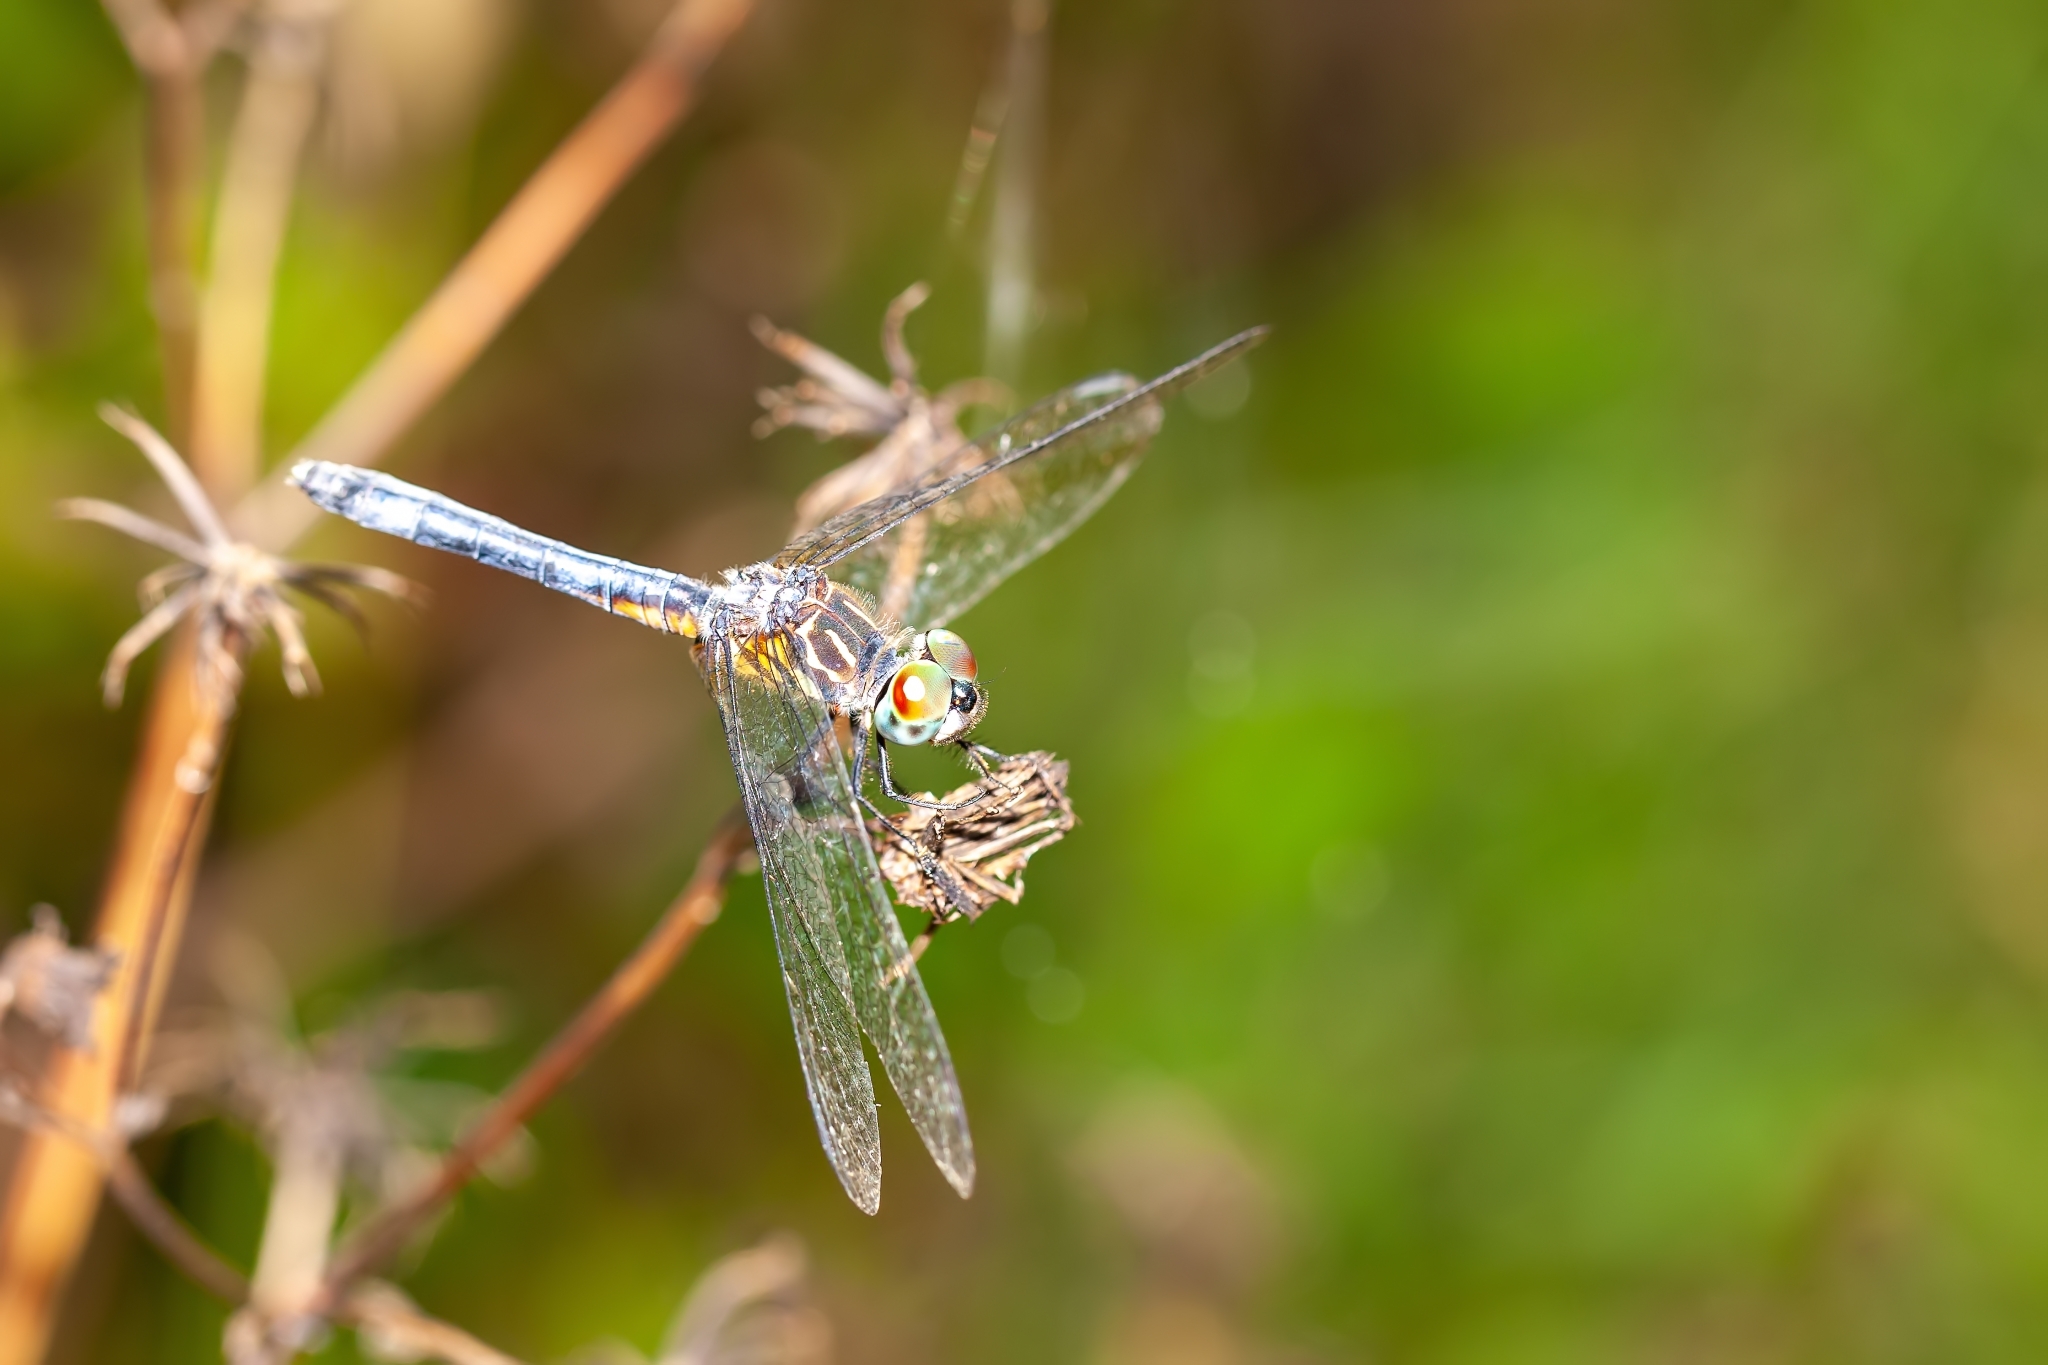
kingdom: Animalia
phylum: Arthropoda
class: Insecta
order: Odonata
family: Libellulidae
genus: Pachydiplax
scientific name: Pachydiplax longipennis
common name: Blue dasher
